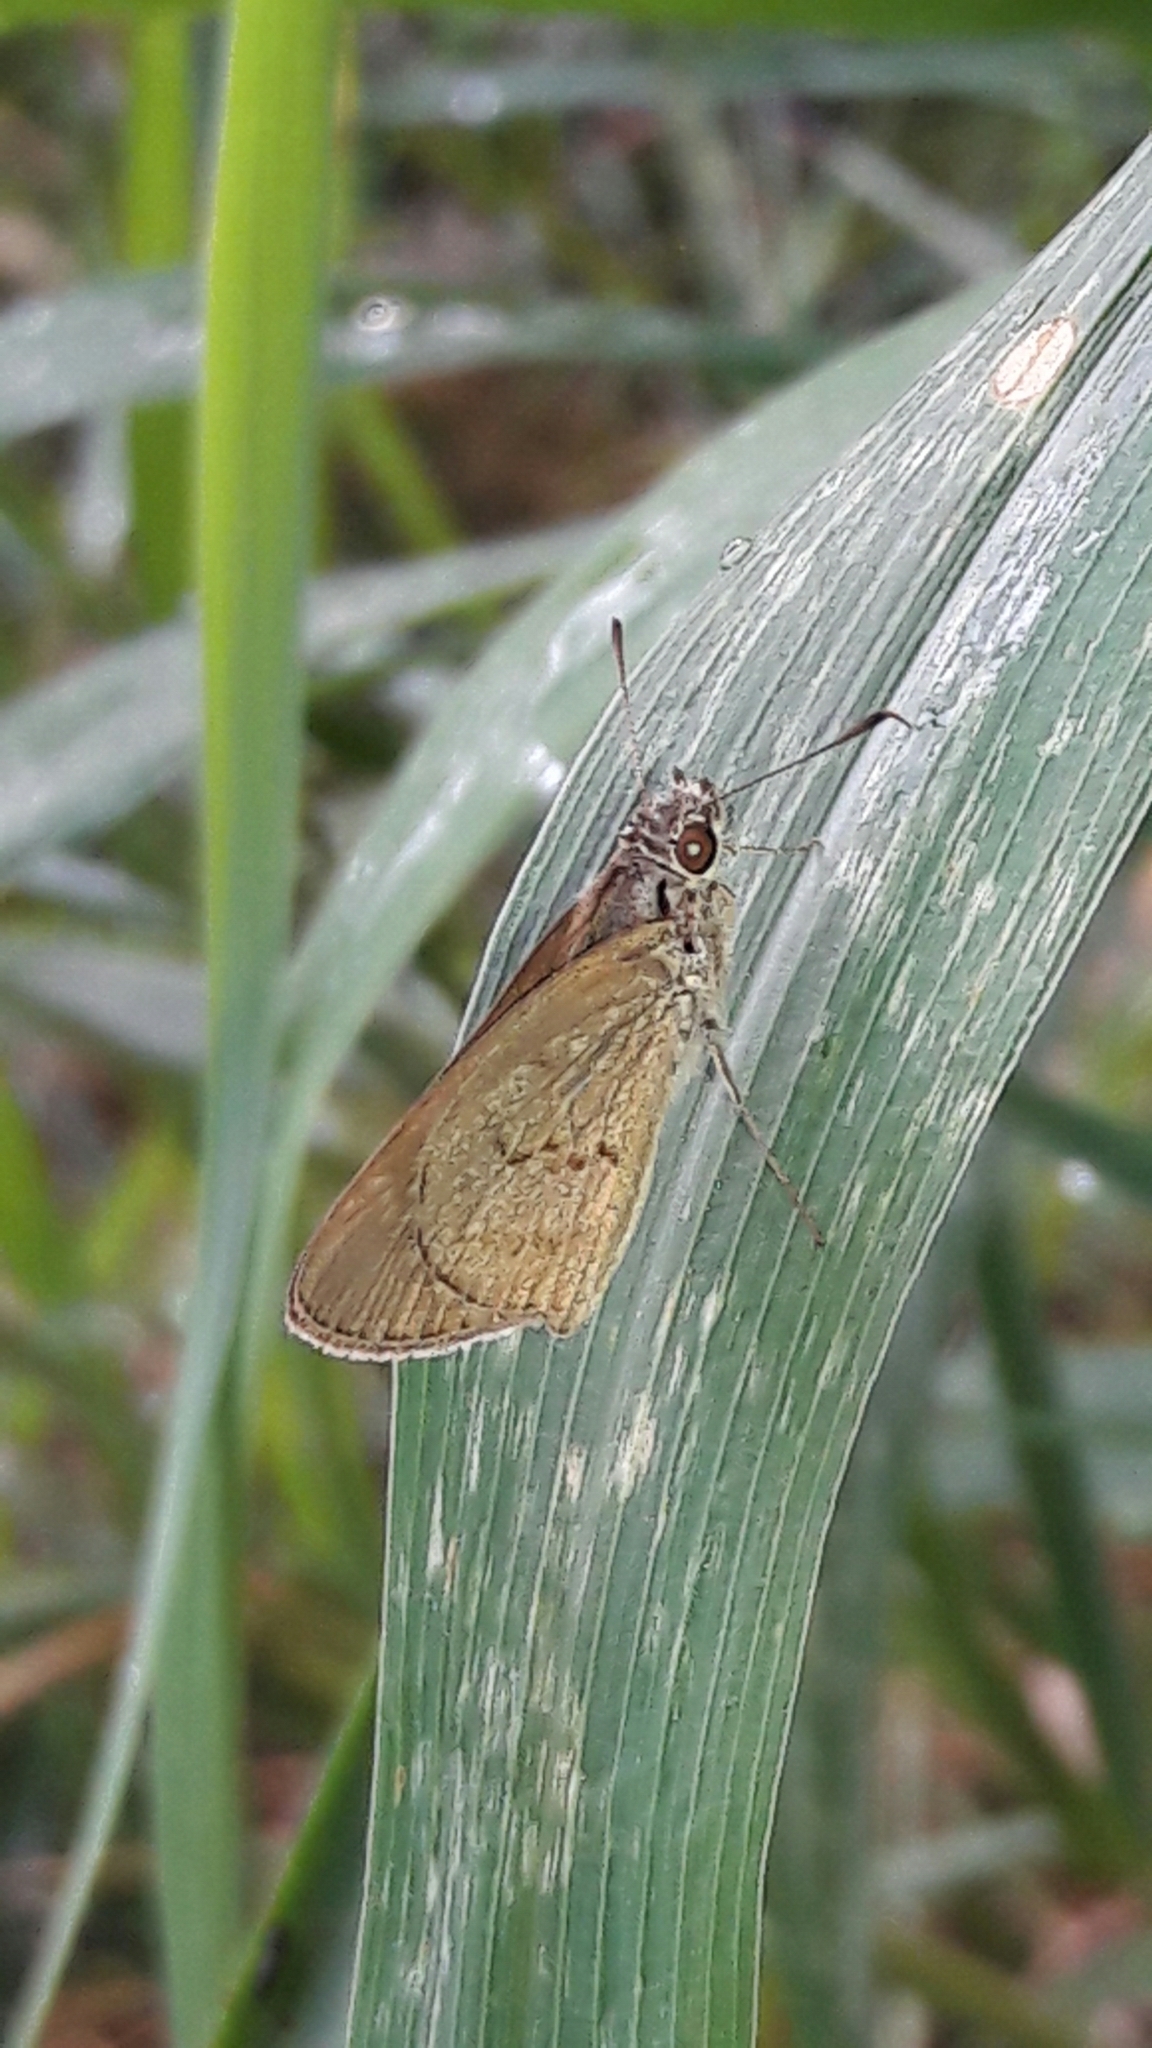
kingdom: Animalia
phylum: Arthropoda
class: Insecta
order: Lepidoptera
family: Hesperiidae
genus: Cymaenes
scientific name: Cymaenes gisca
